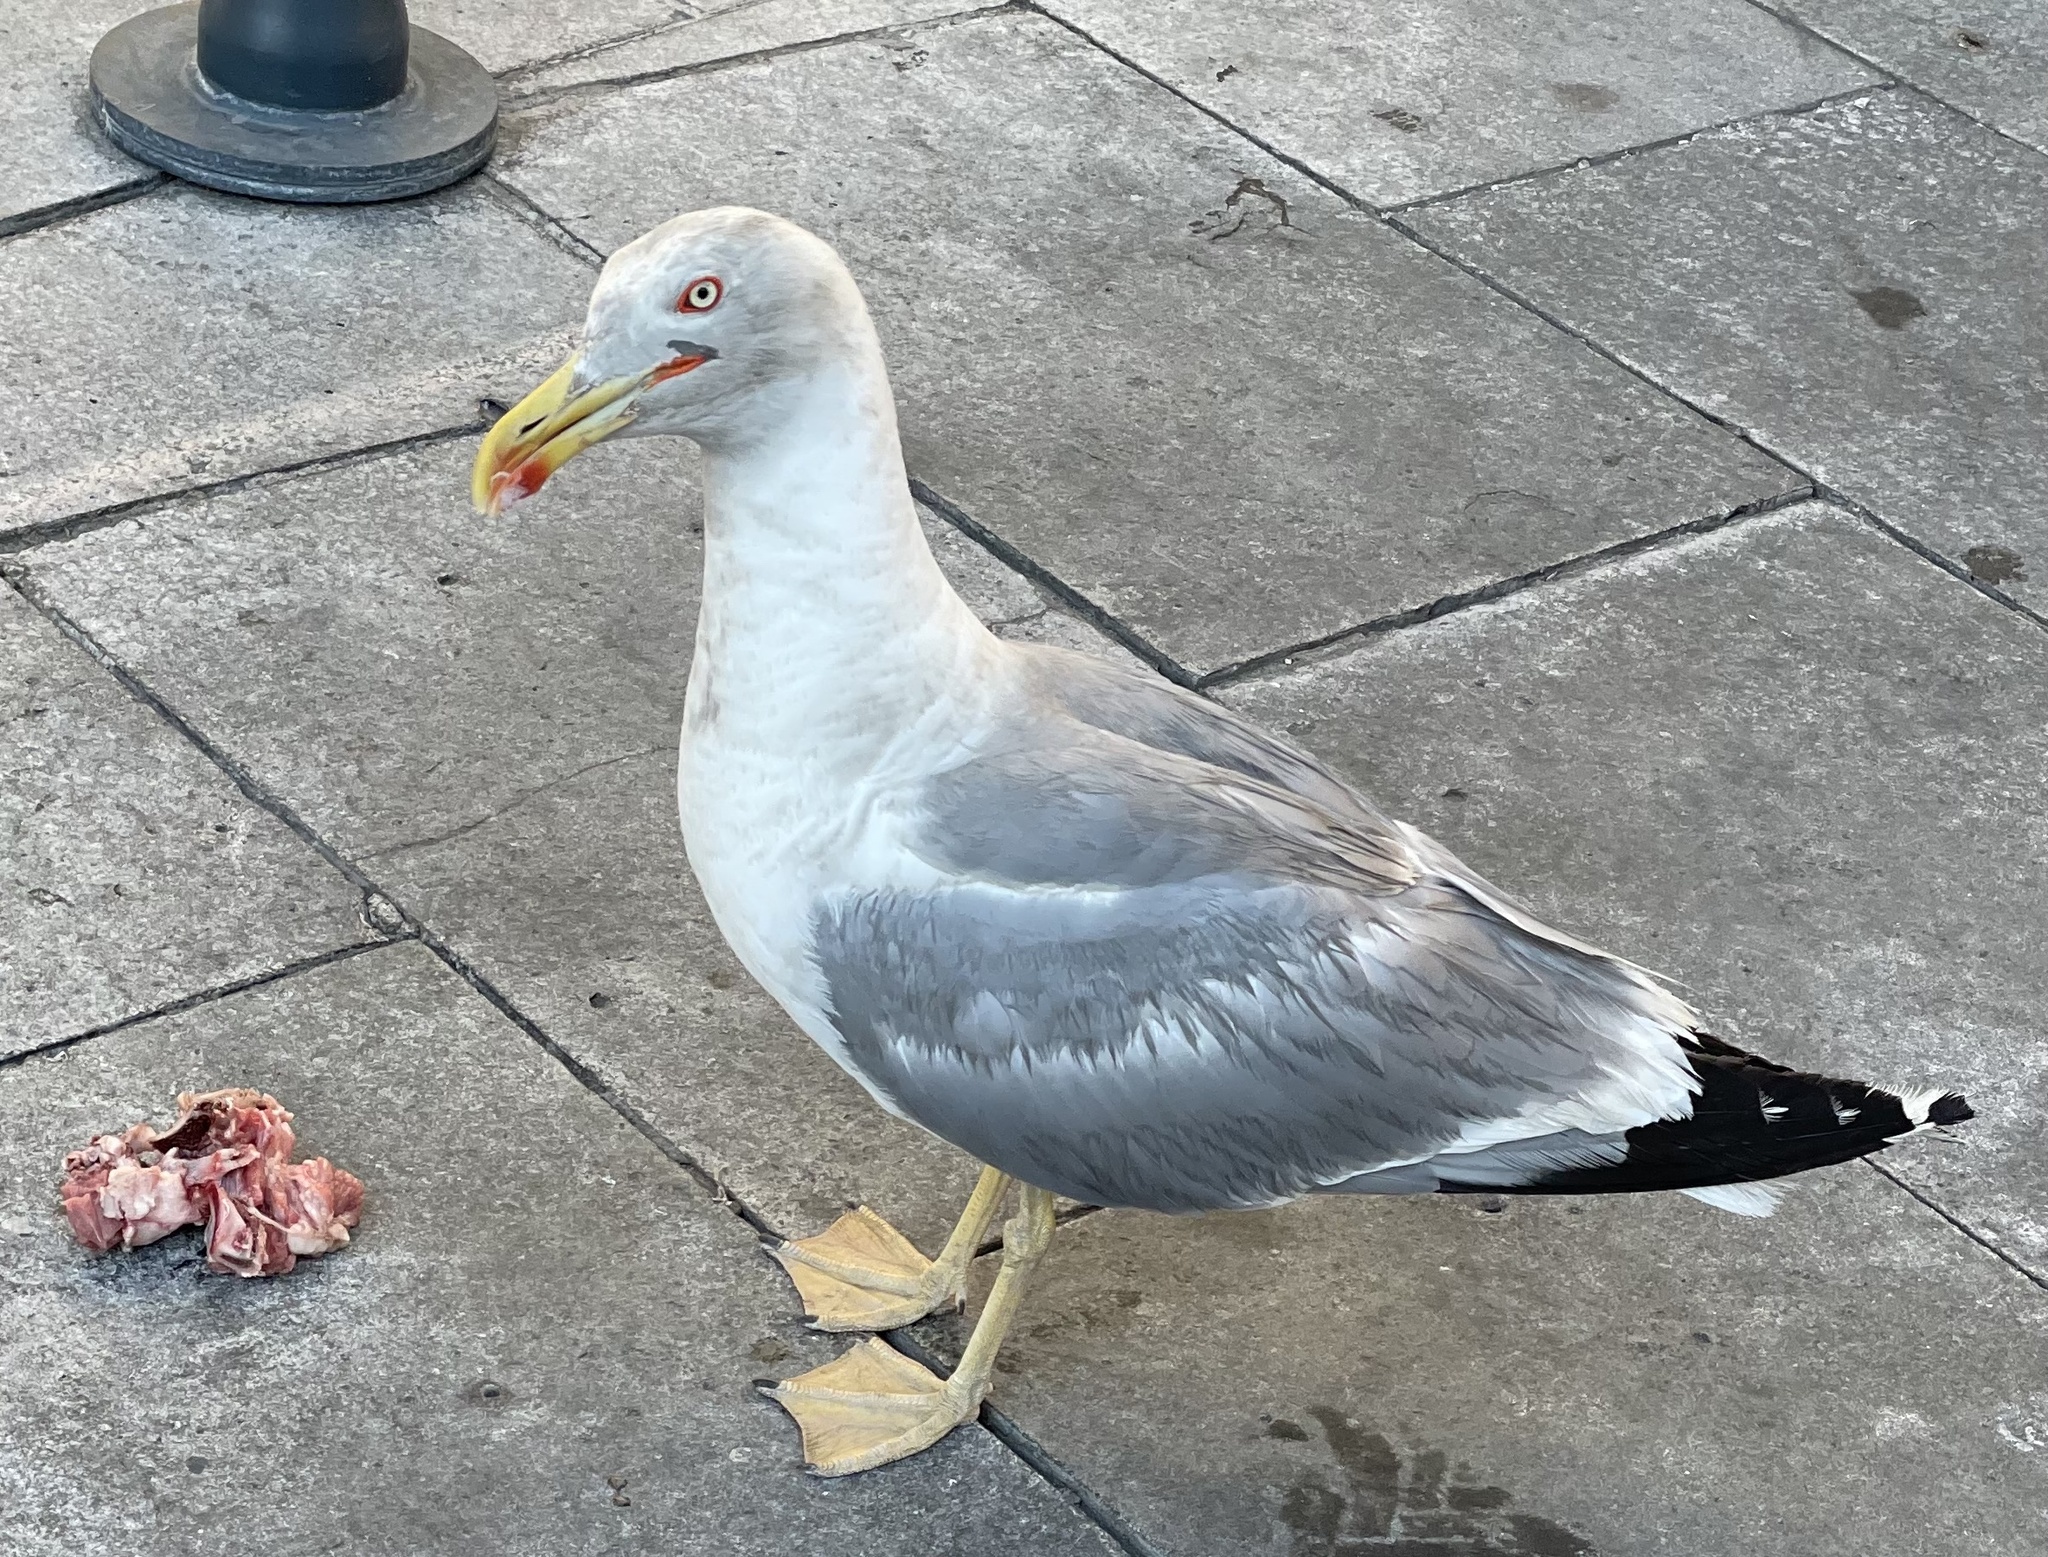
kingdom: Animalia
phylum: Chordata
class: Aves
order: Charadriiformes
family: Laridae
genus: Larus
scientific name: Larus michahellis
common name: Yellow-legged gull
